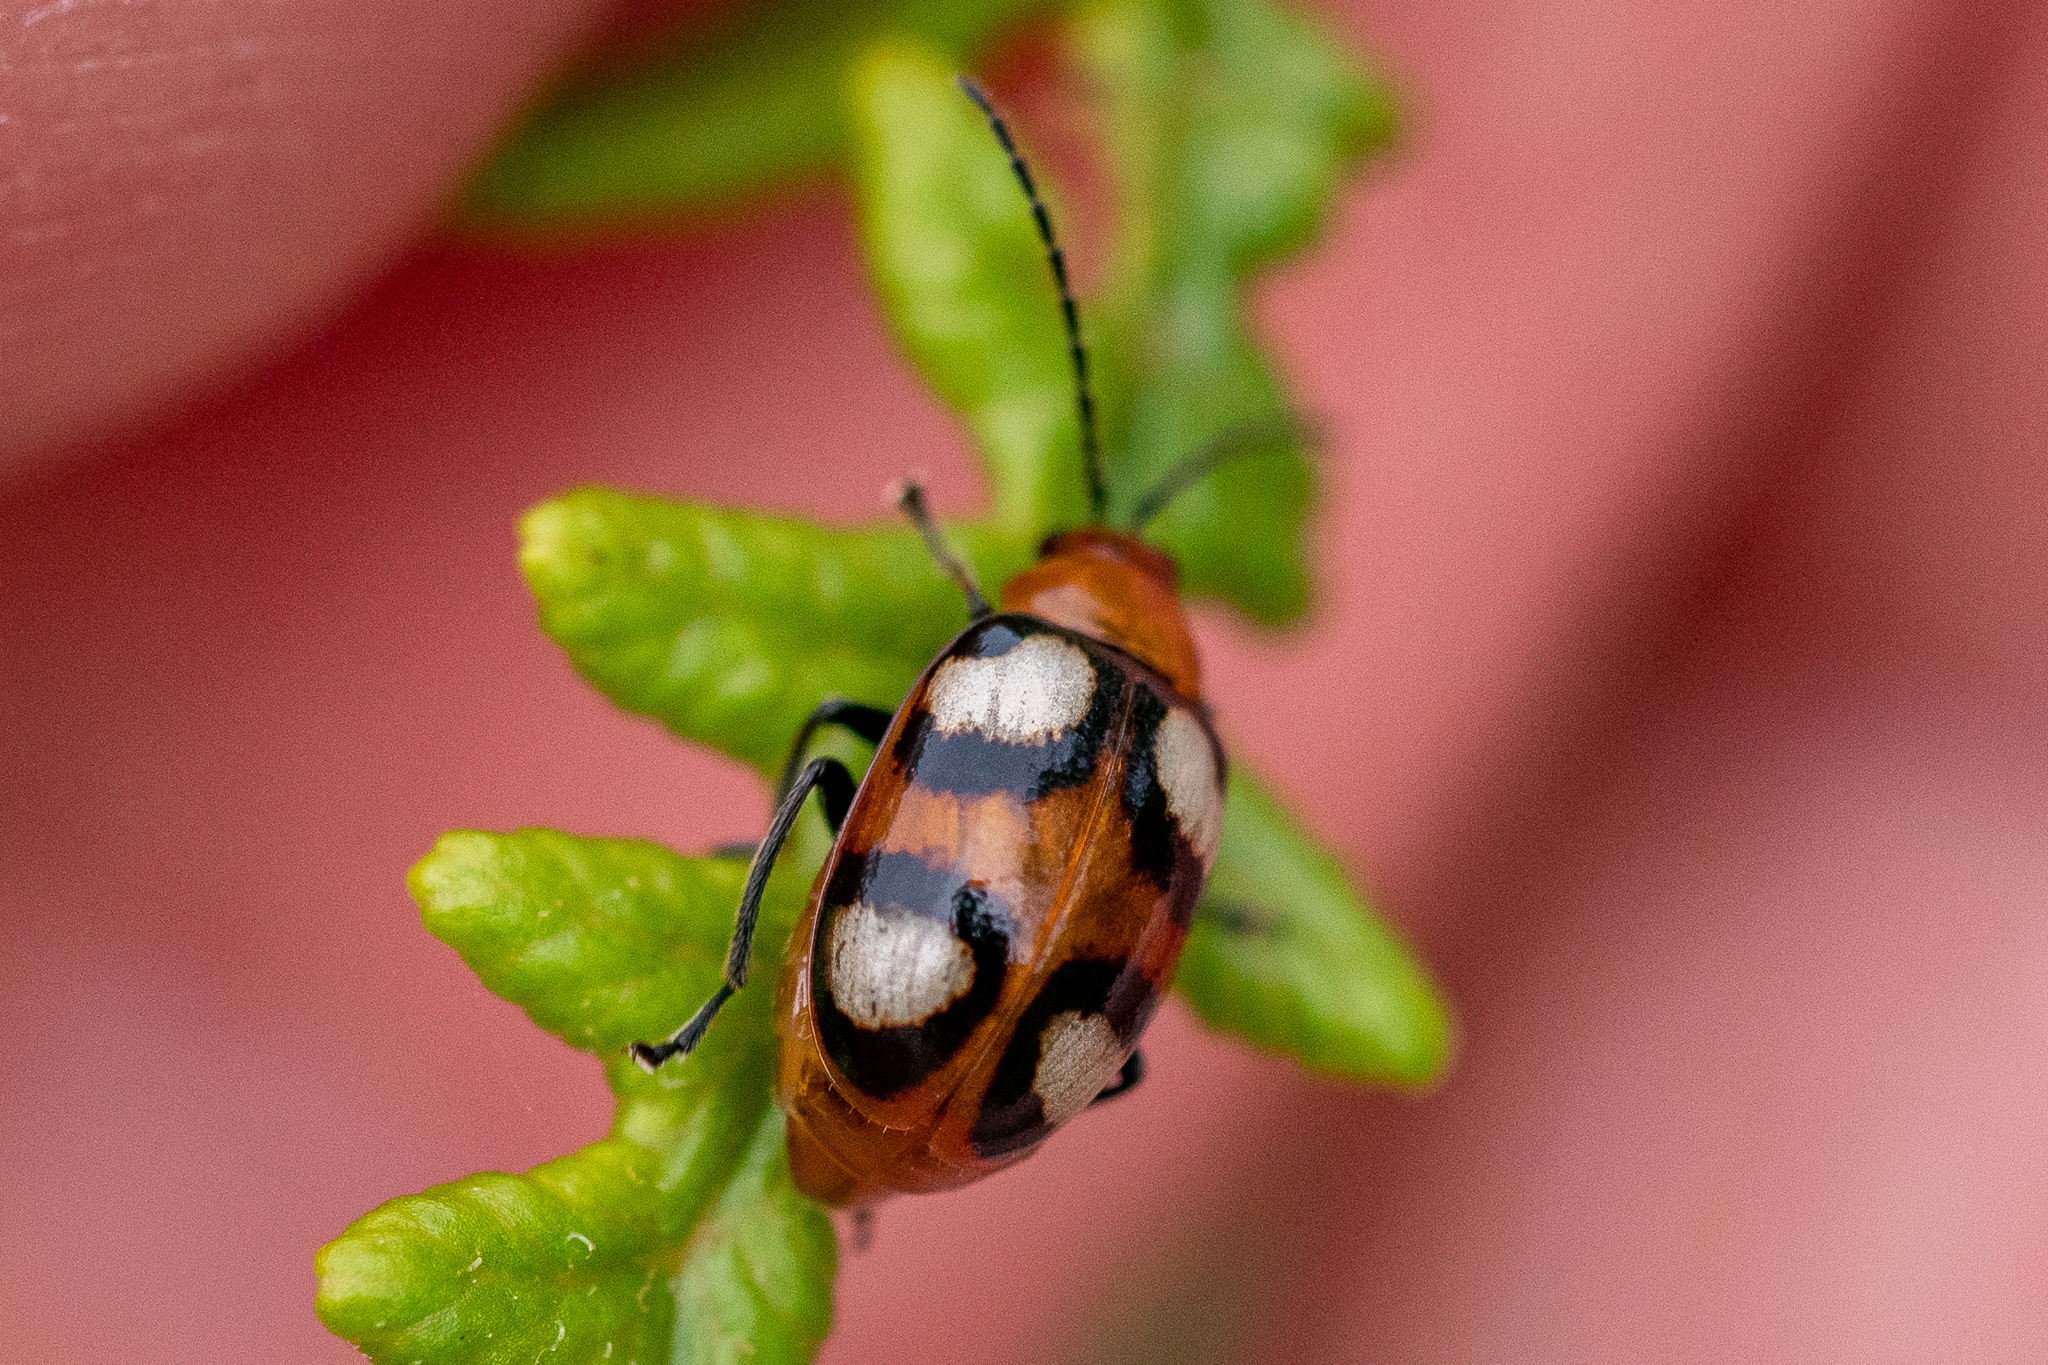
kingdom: Animalia
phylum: Arthropoda
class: Insecta
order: Coleoptera
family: Chrysomelidae
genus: Monolepta
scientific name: Monolepta
